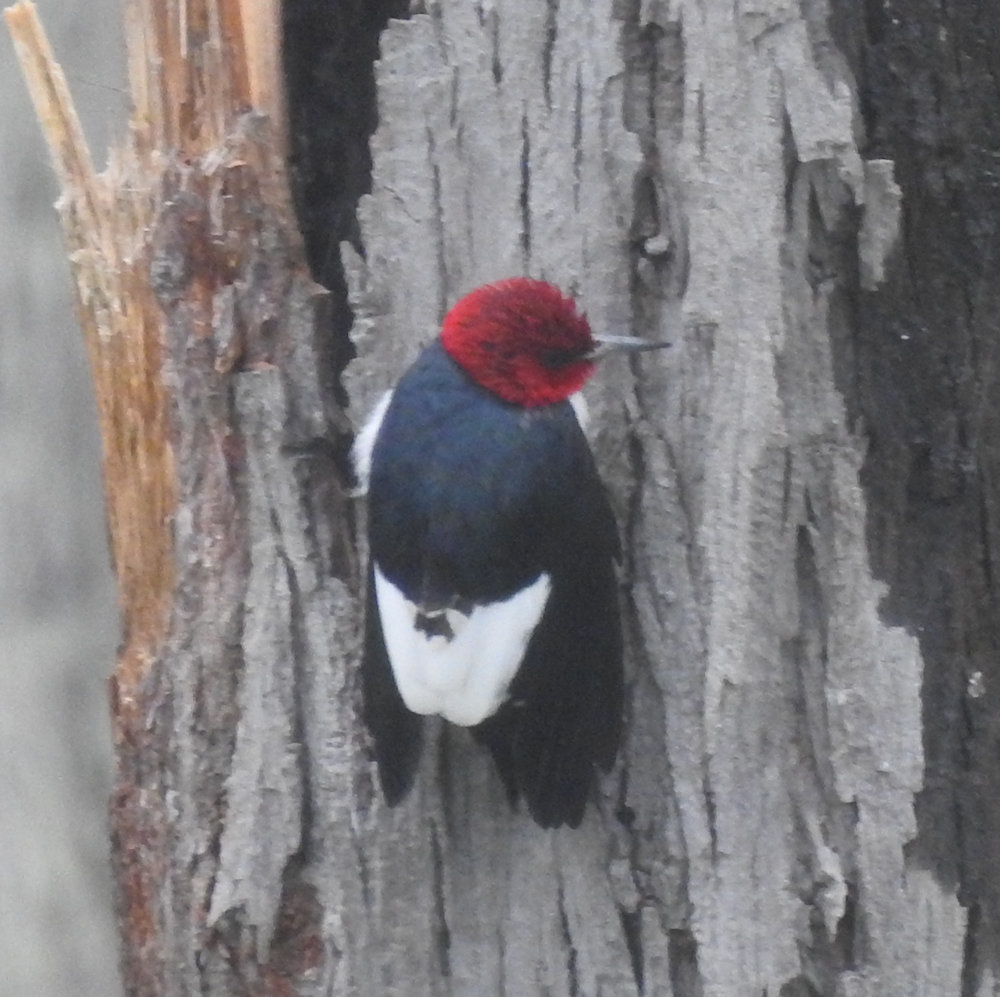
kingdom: Animalia
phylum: Chordata
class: Aves
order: Piciformes
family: Picidae
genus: Melanerpes
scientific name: Melanerpes erythrocephalus
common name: Red-headed woodpecker
